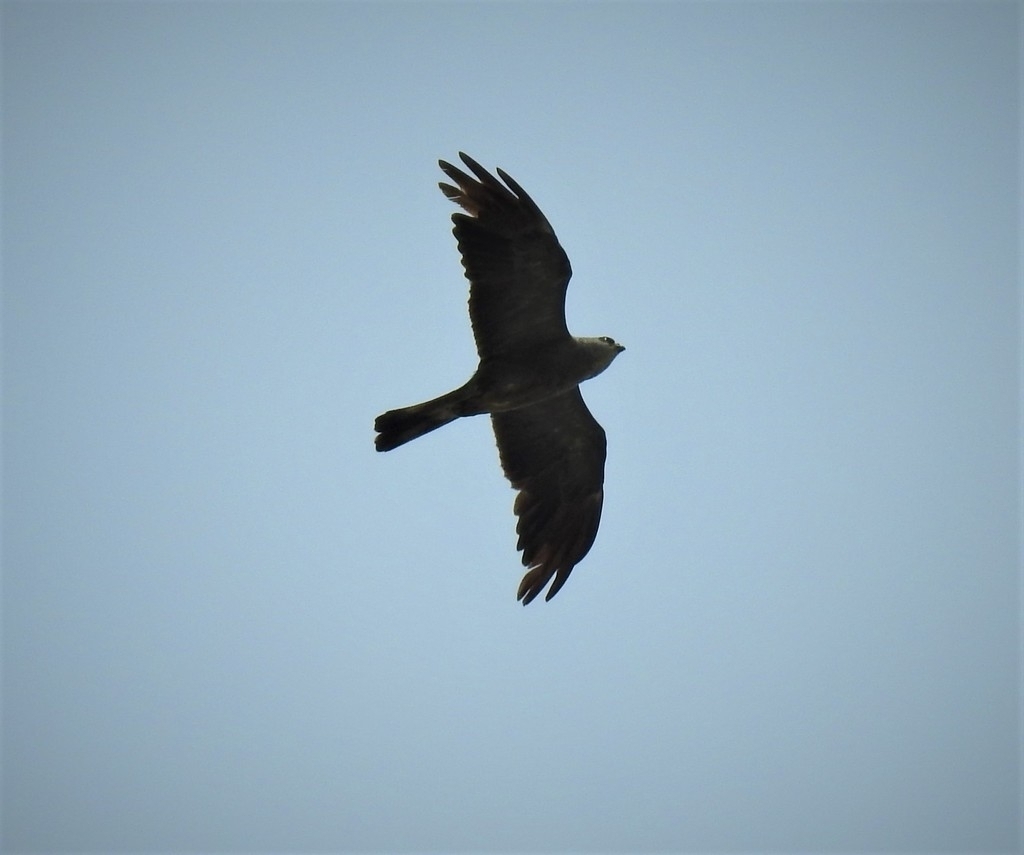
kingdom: Animalia
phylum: Chordata
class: Aves
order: Accipitriformes
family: Accipitridae
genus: Ictinia
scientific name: Ictinia mississippiensis
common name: Mississippi kite
